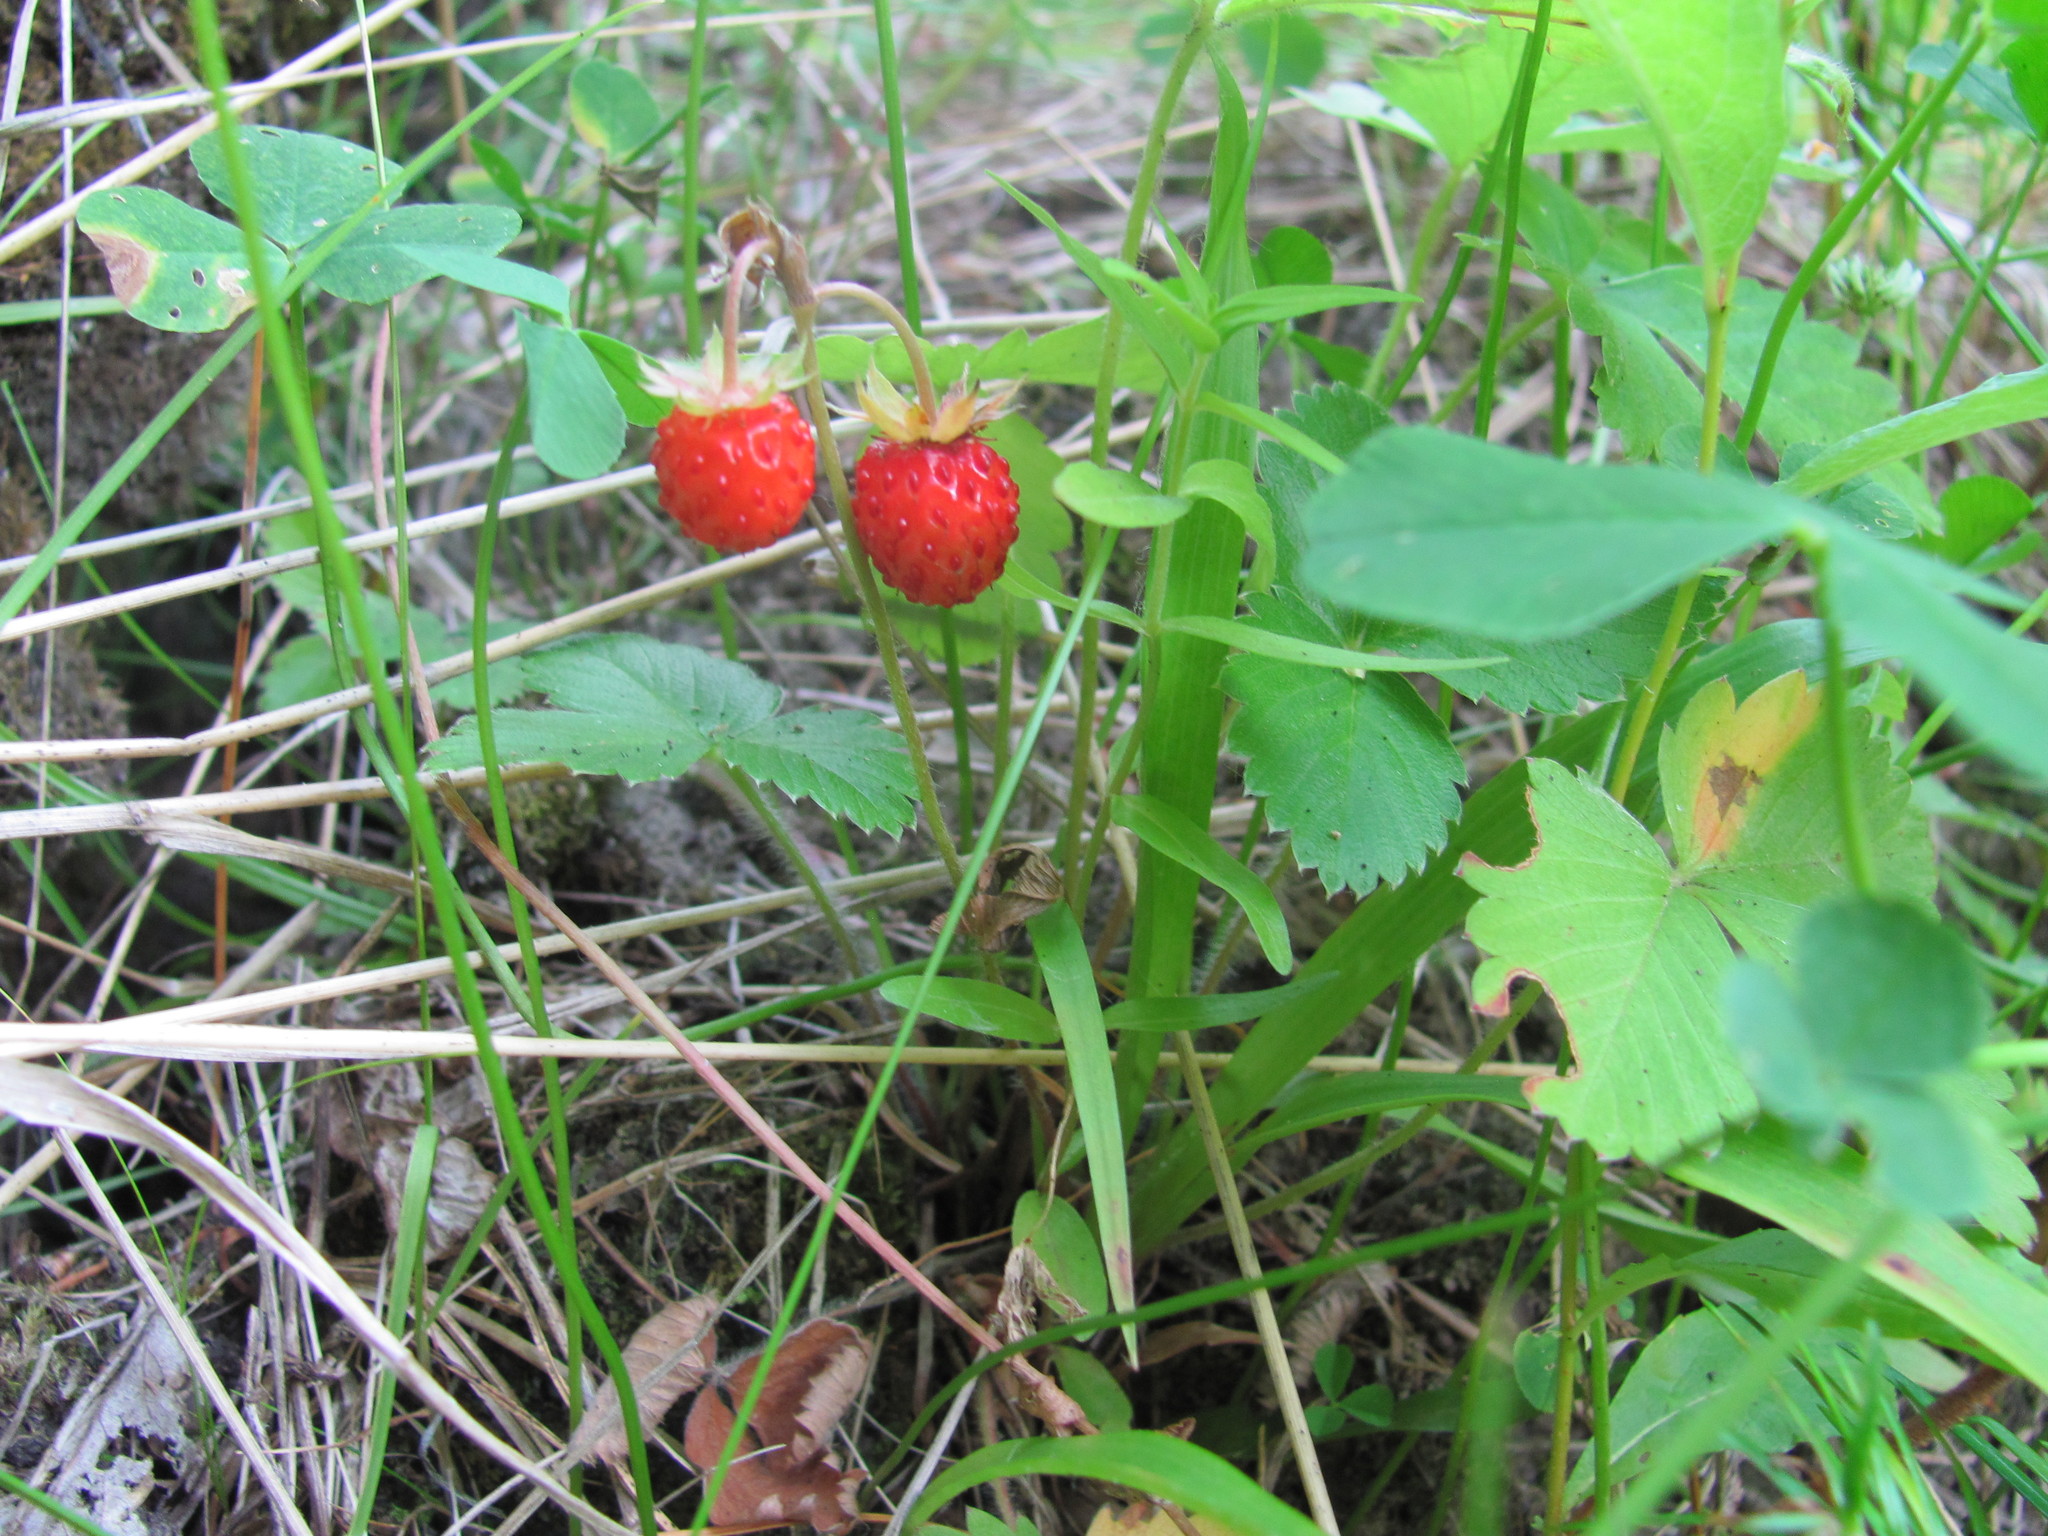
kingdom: Plantae
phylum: Tracheophyta
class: Magnoliopsida
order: Rosales
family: Rosaceae
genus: Fragaria
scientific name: Fragaria vesca
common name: Wild strawberry
